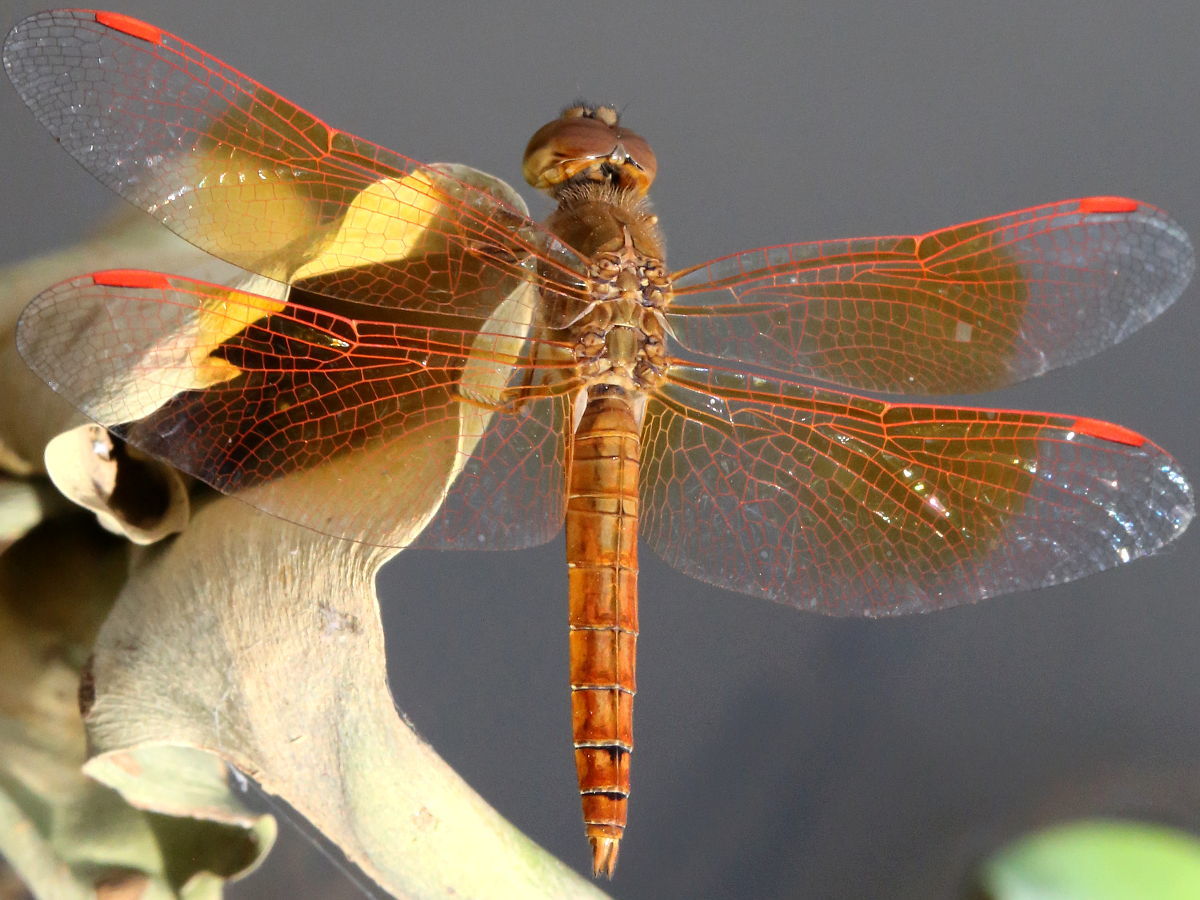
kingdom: Animalia
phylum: Arthropoda
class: Insecta
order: Odonata
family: Libellulidae
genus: Brachythemis
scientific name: Brachythemis contaminata
